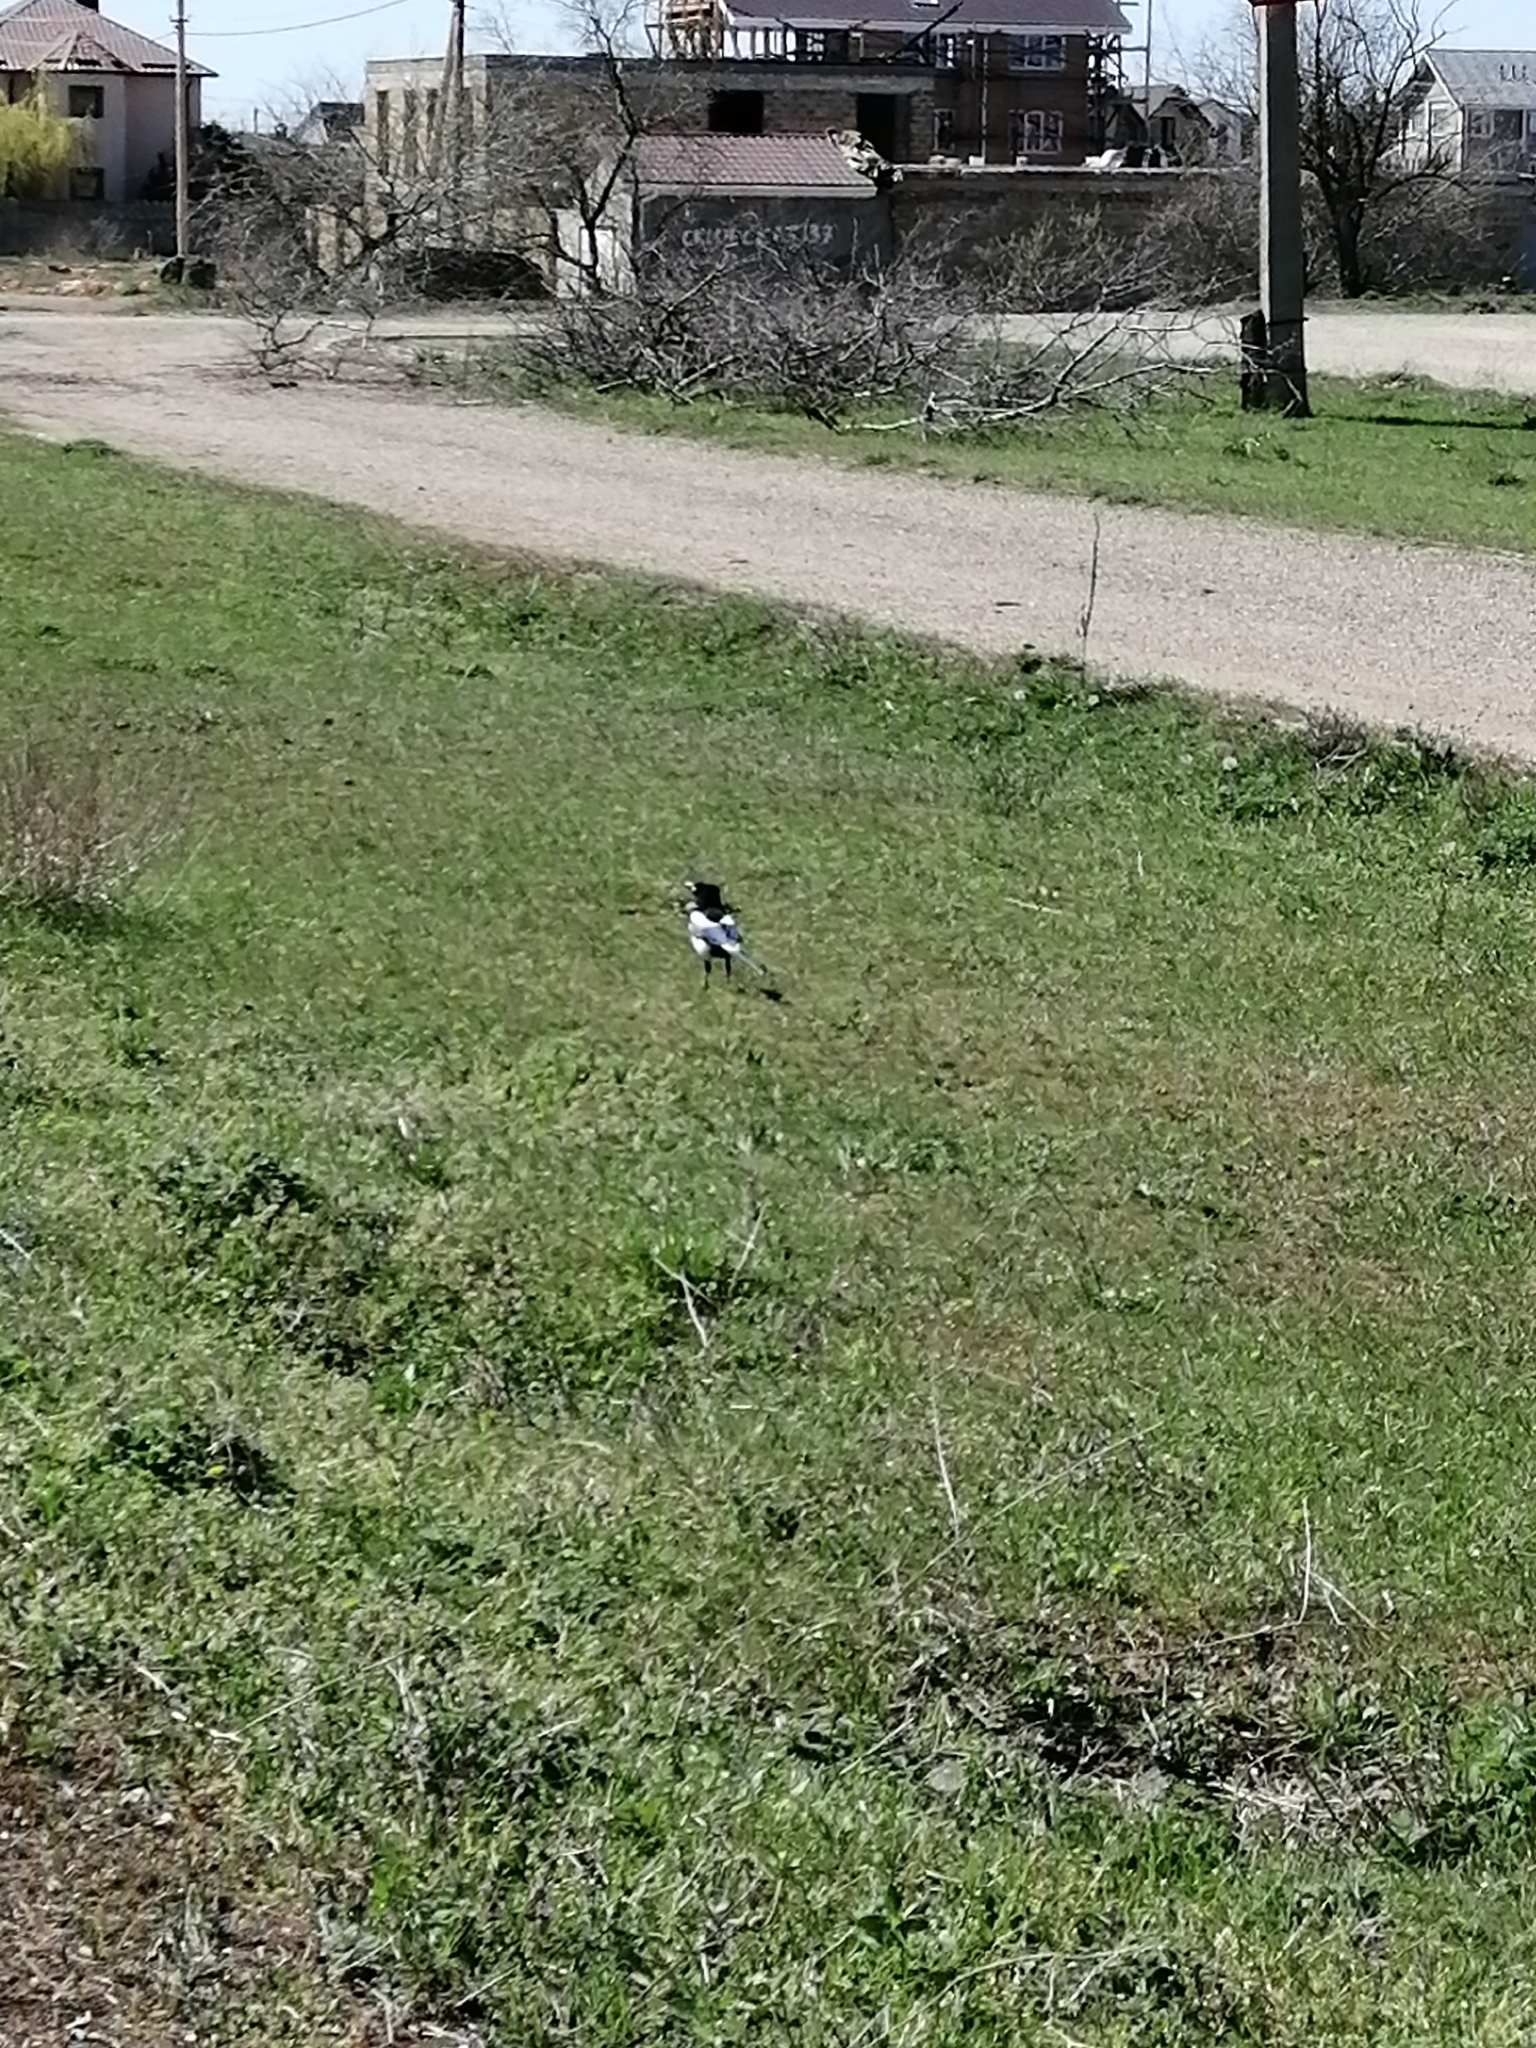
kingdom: Animalia
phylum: Chordata
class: Aves
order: Passeriformes
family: Corvidae
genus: Pica
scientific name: Pica pica
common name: Eurasian magpie
